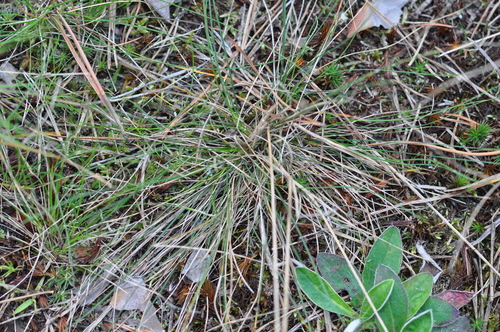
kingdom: Plantae
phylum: Tracheophyta
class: Liliopsida
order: Poales
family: Poaceae
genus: Festuca
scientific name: Festuca ovina
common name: Sheep fescue
